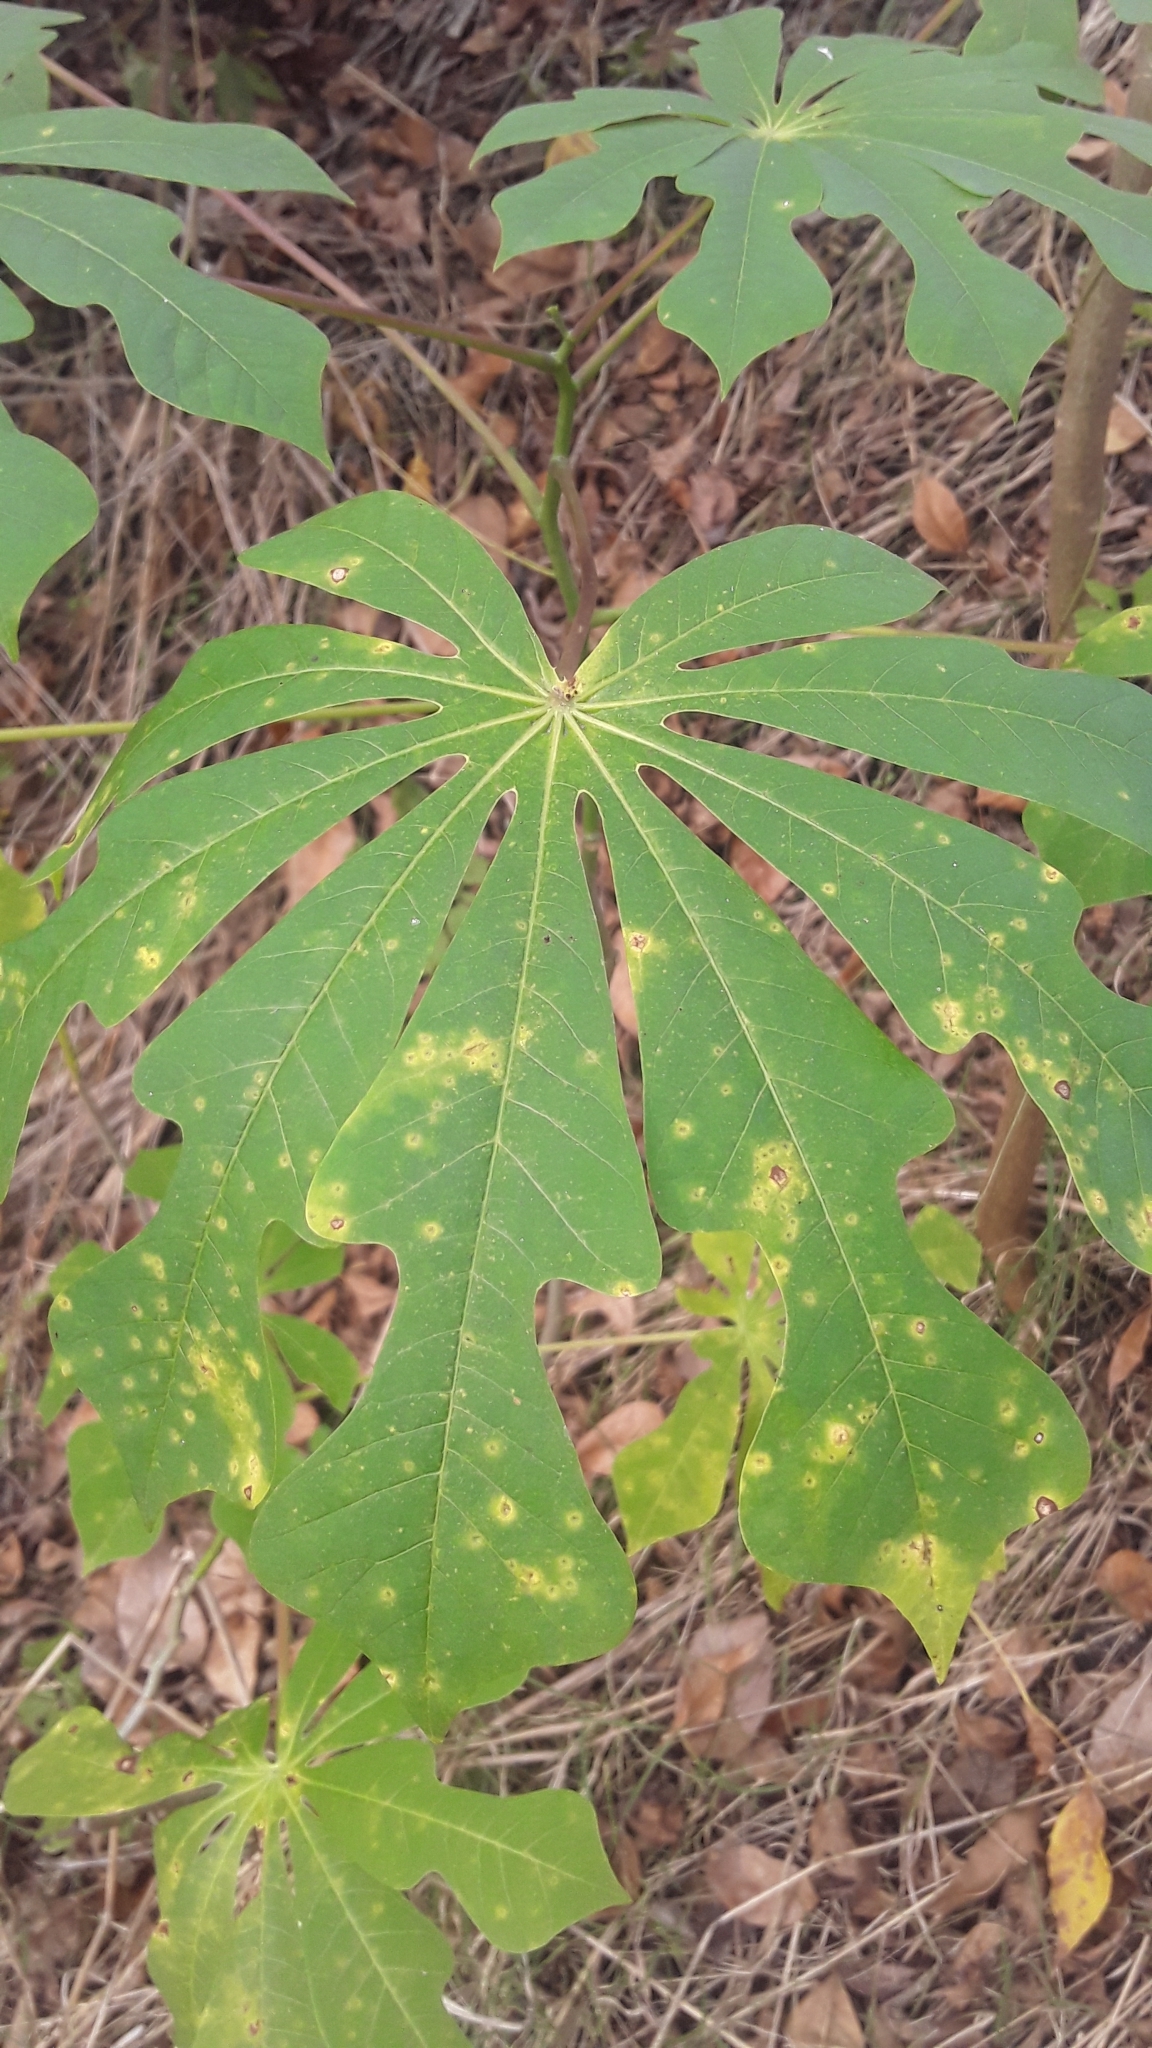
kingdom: Plantae
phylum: Tracheophyta
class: Magnoliopsida
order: Malpighiales
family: Euphorbiaceae
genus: Manihot
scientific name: Manihot grahamii
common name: Graham's manihot
